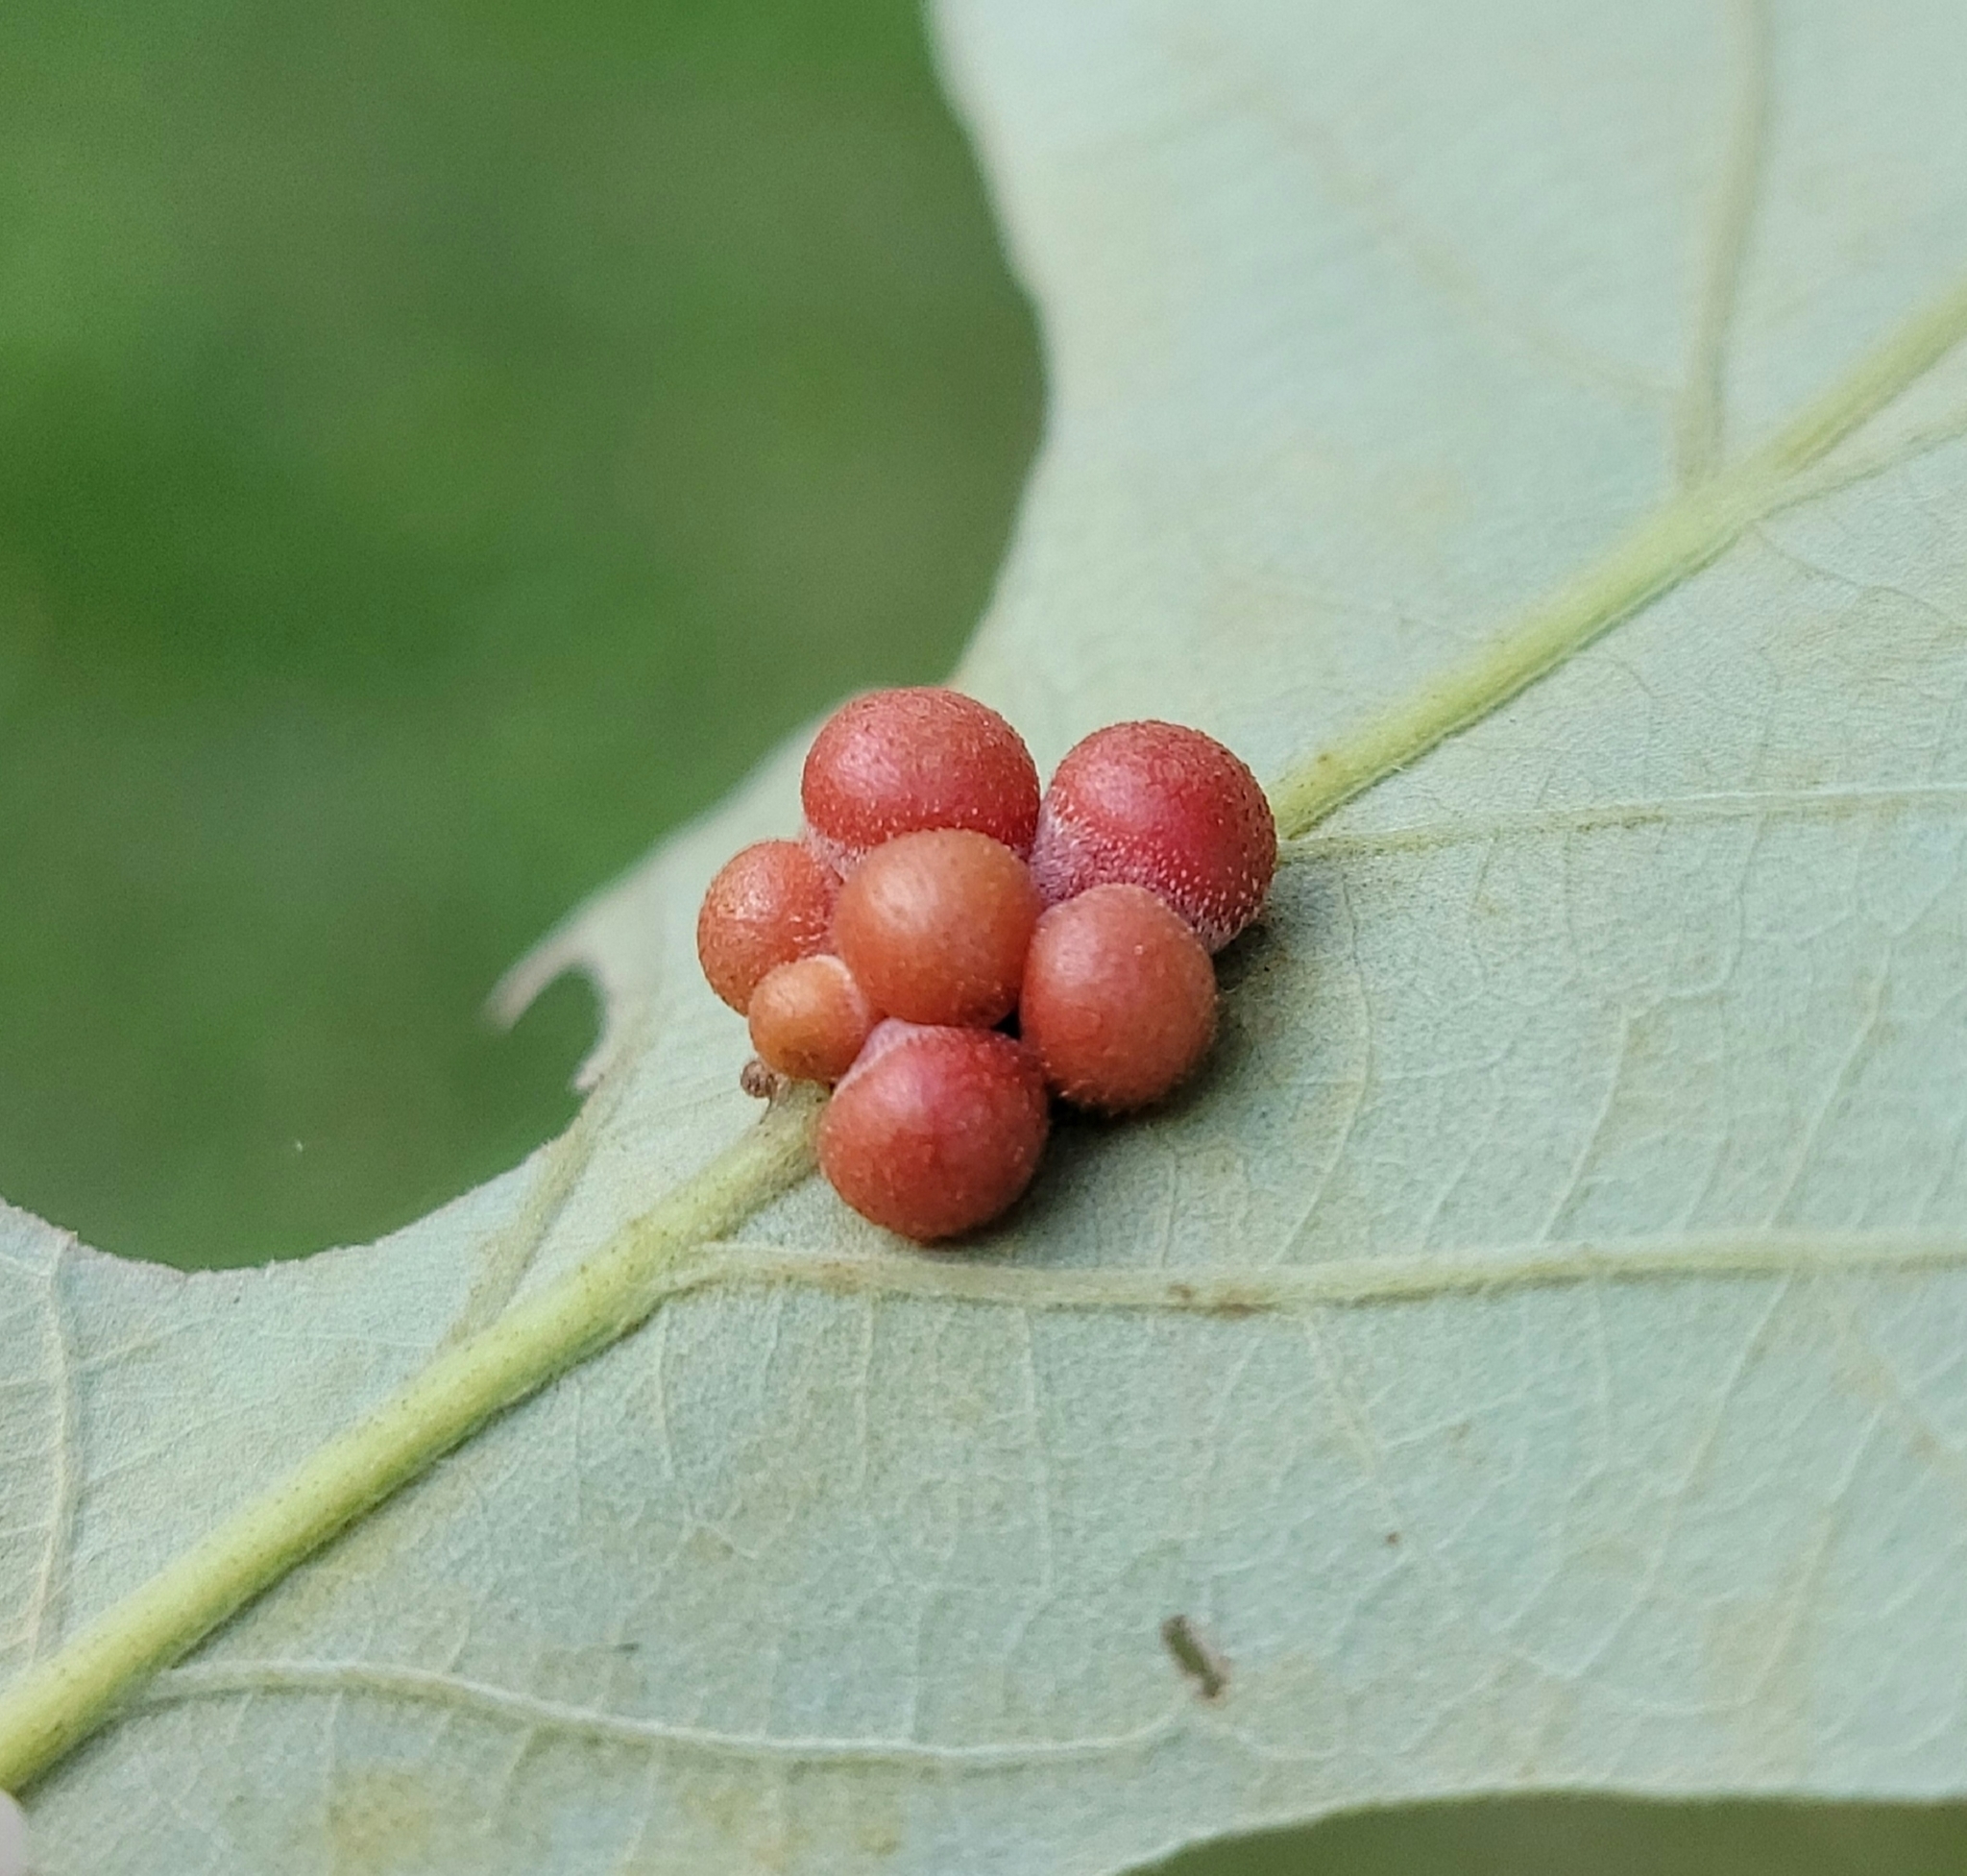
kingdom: Animalia
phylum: Arthropoda
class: Insecta
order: Hymenoptera
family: Cynipidae
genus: Andricus
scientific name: Andricus
